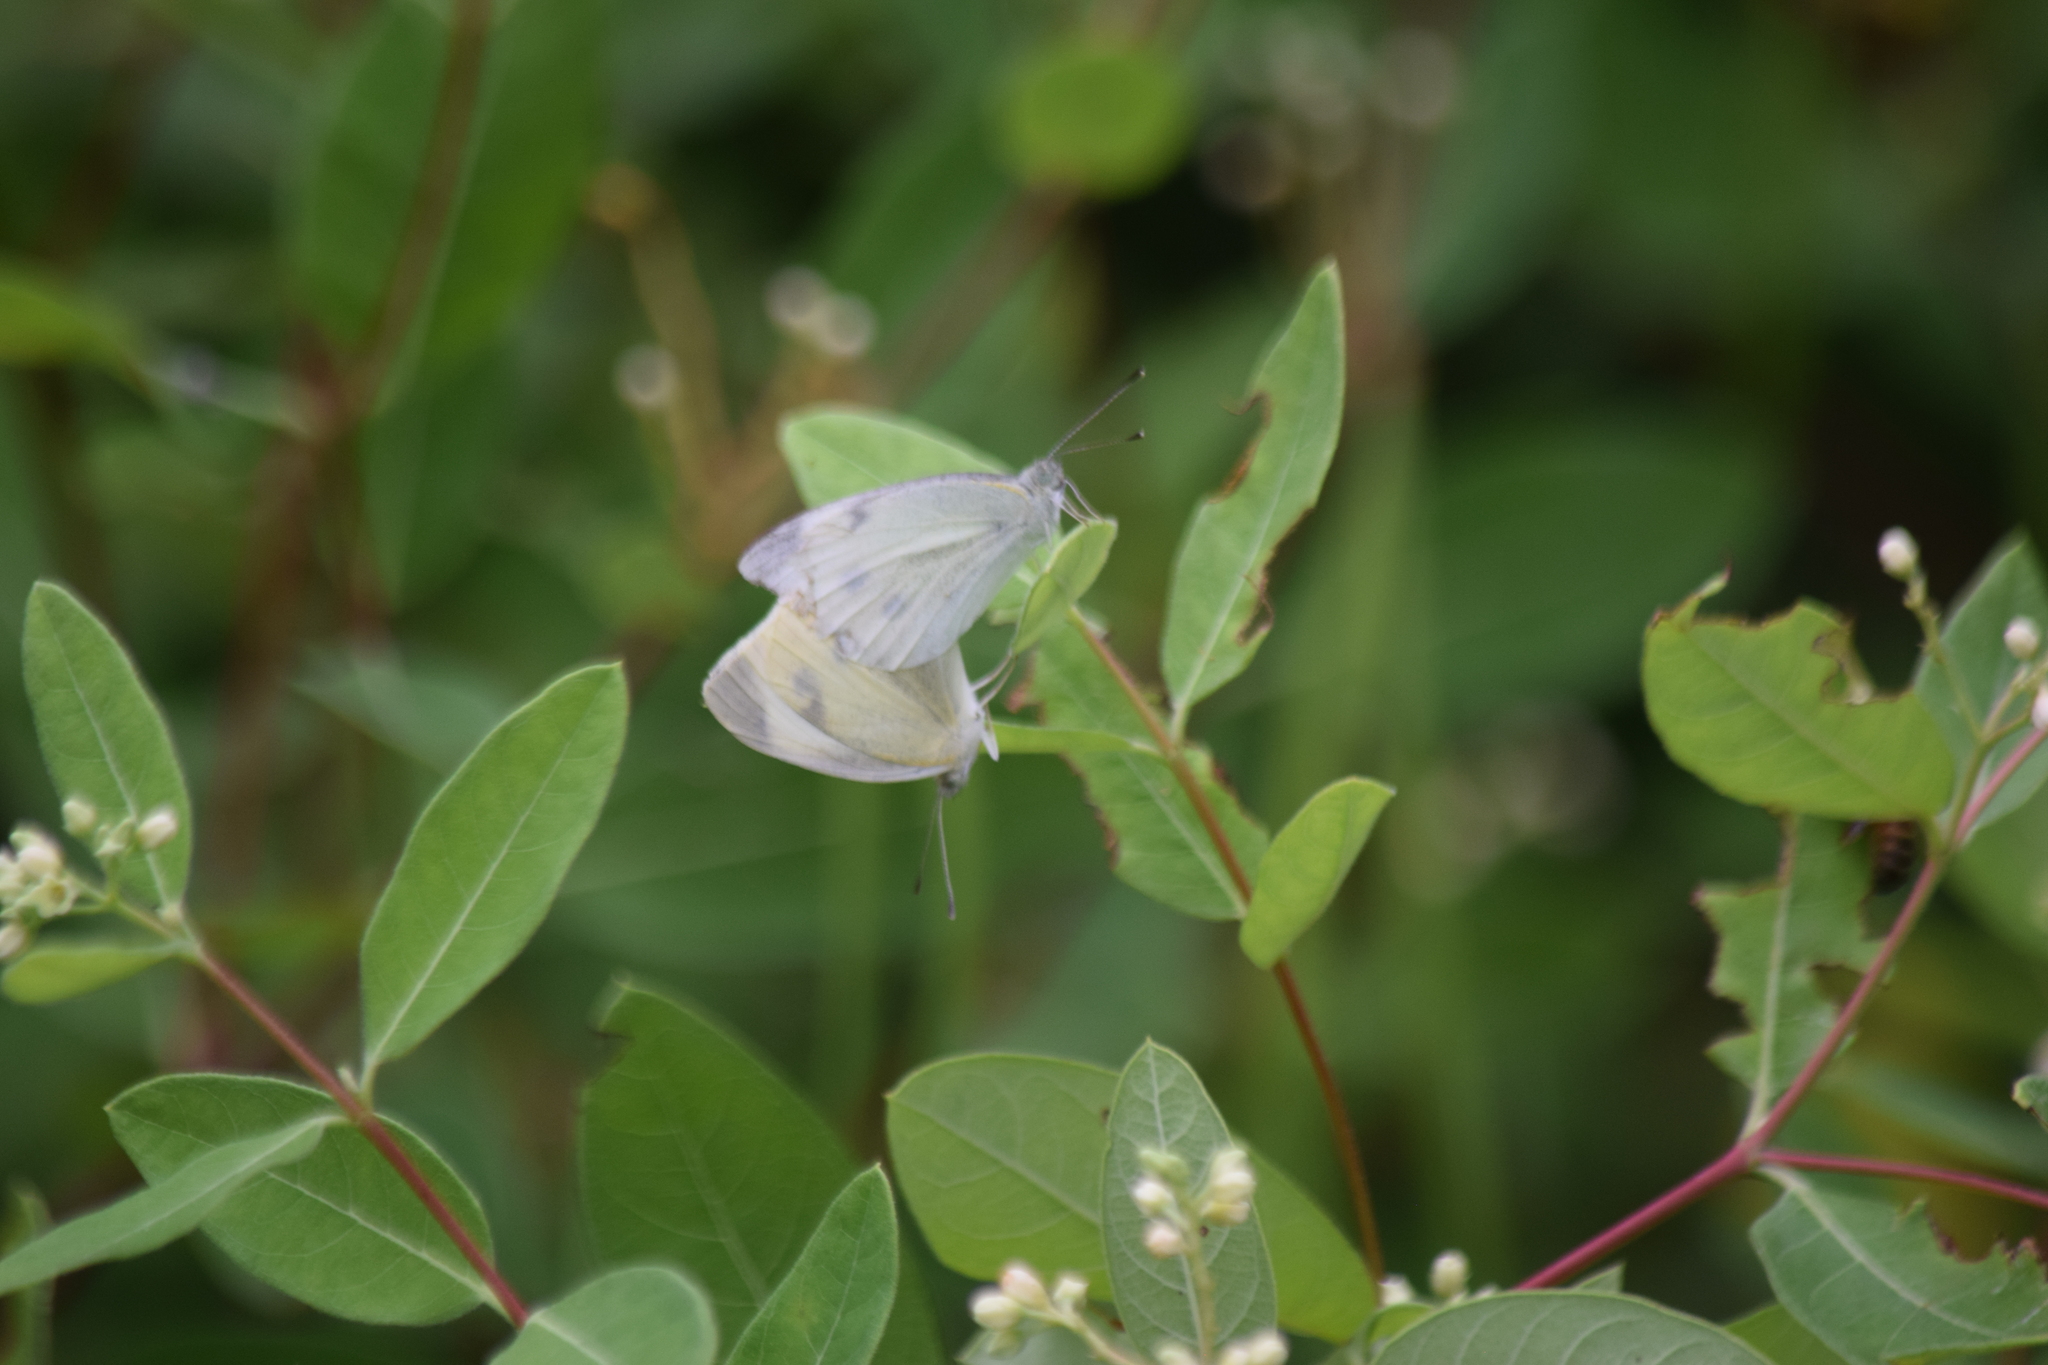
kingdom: Animalia
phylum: Arthropoda
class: Insecta
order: Lepidoptera
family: Pieridae
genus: Pieris
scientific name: Pieris rapae
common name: Small white
